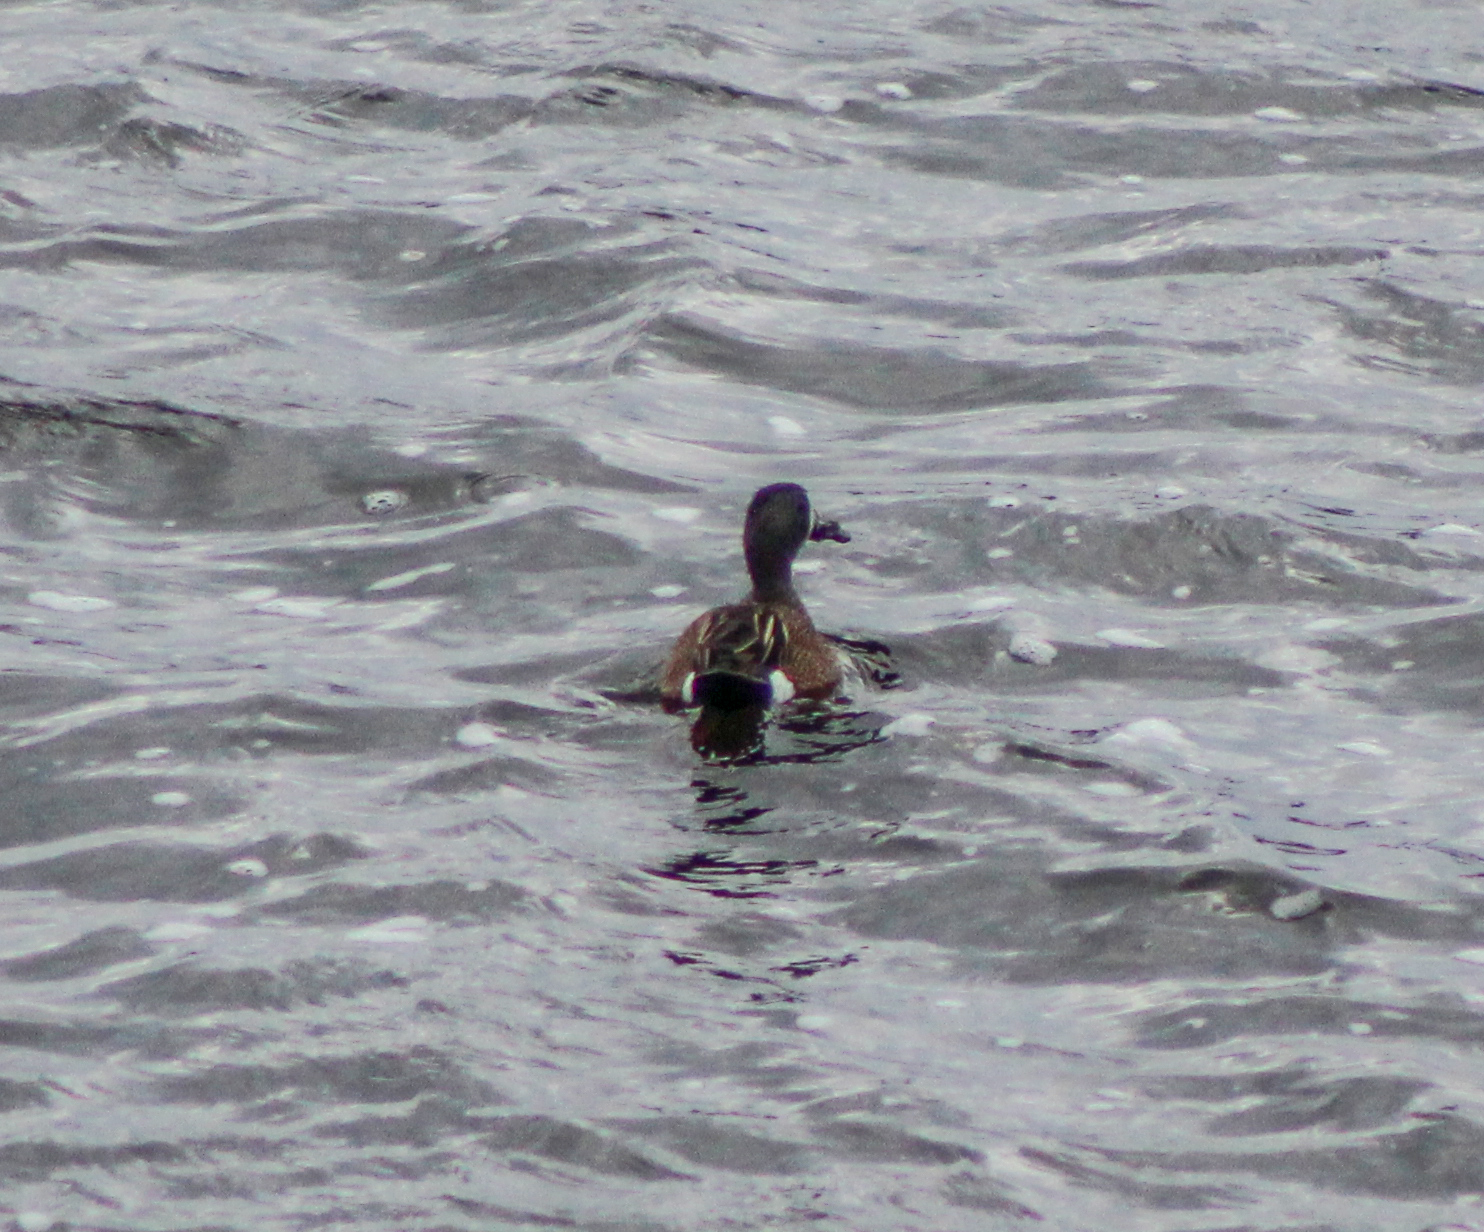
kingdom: Animalia
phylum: Chordata
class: Aves
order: Anseriformes
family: Anatidae
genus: Spatula
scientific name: Spatula discors
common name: Blue-winged teal
